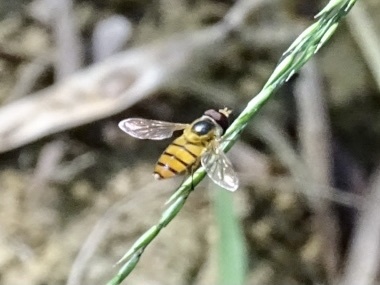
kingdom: Animalia
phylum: Arthropoda
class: Insecta
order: Diptera
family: Syrphidae
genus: Asarkina
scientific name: Asarkina porcina
